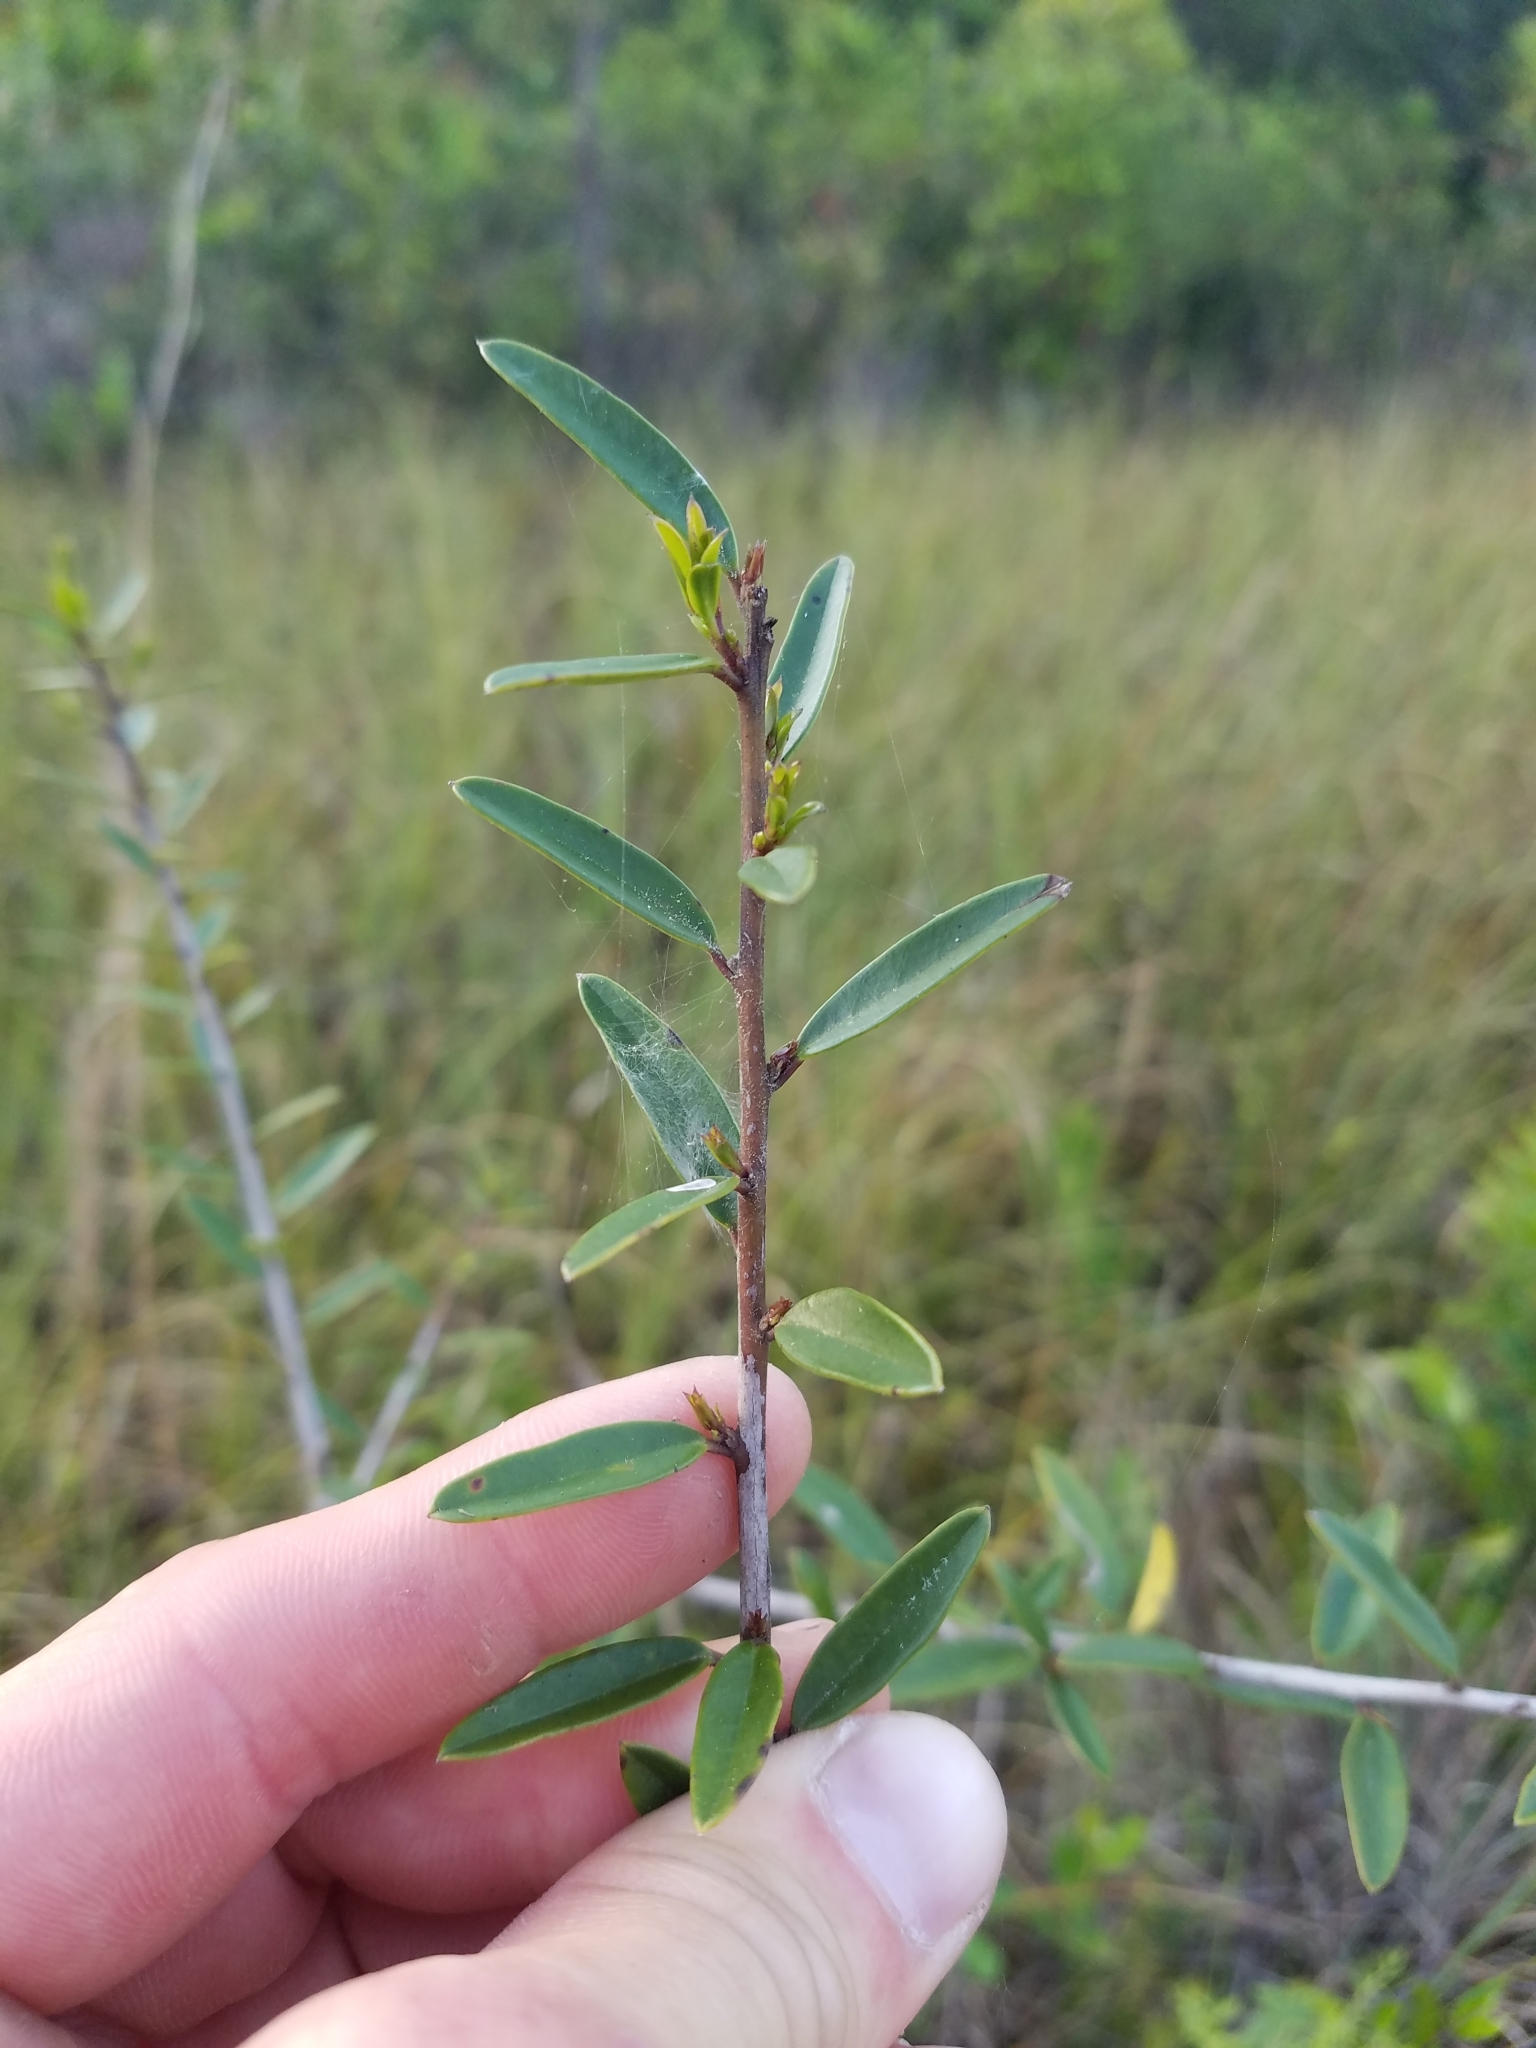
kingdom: Plantae
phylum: Tracheophyta
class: Magnoliopsida
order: Aquifoliales
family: Aquifoliaceae
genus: Ilex
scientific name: Ilex myrtifolia
